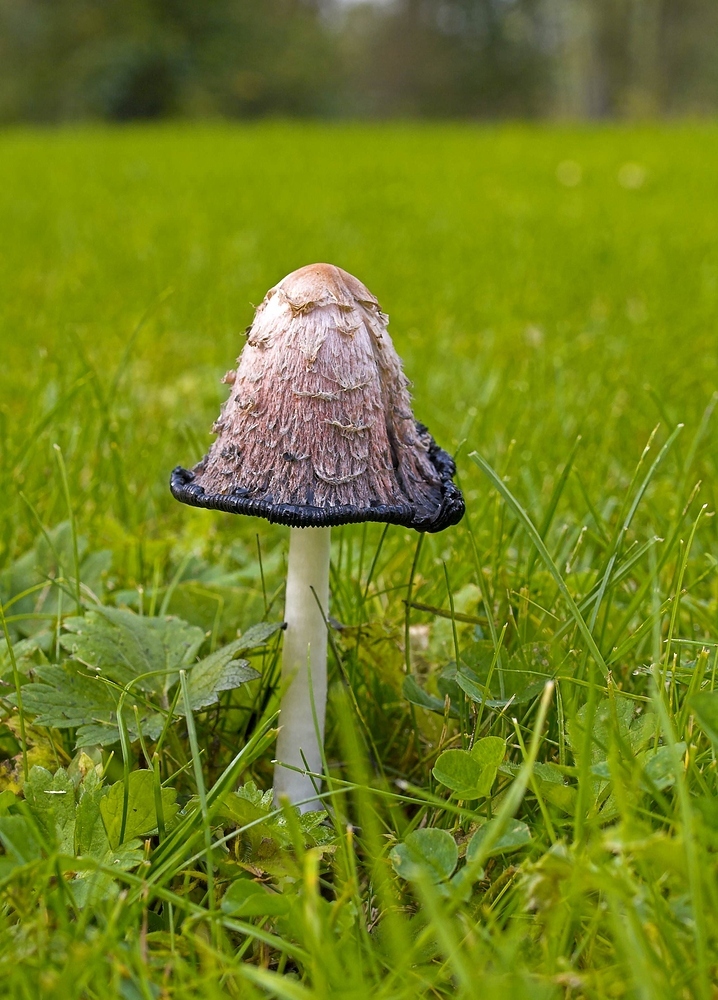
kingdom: Fungi
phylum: Basidiomycota
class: Agaricomycetes
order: Agaricales
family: Agaricaceae
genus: Coprinus
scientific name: Coprinus comatus
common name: Lawyer's wig
